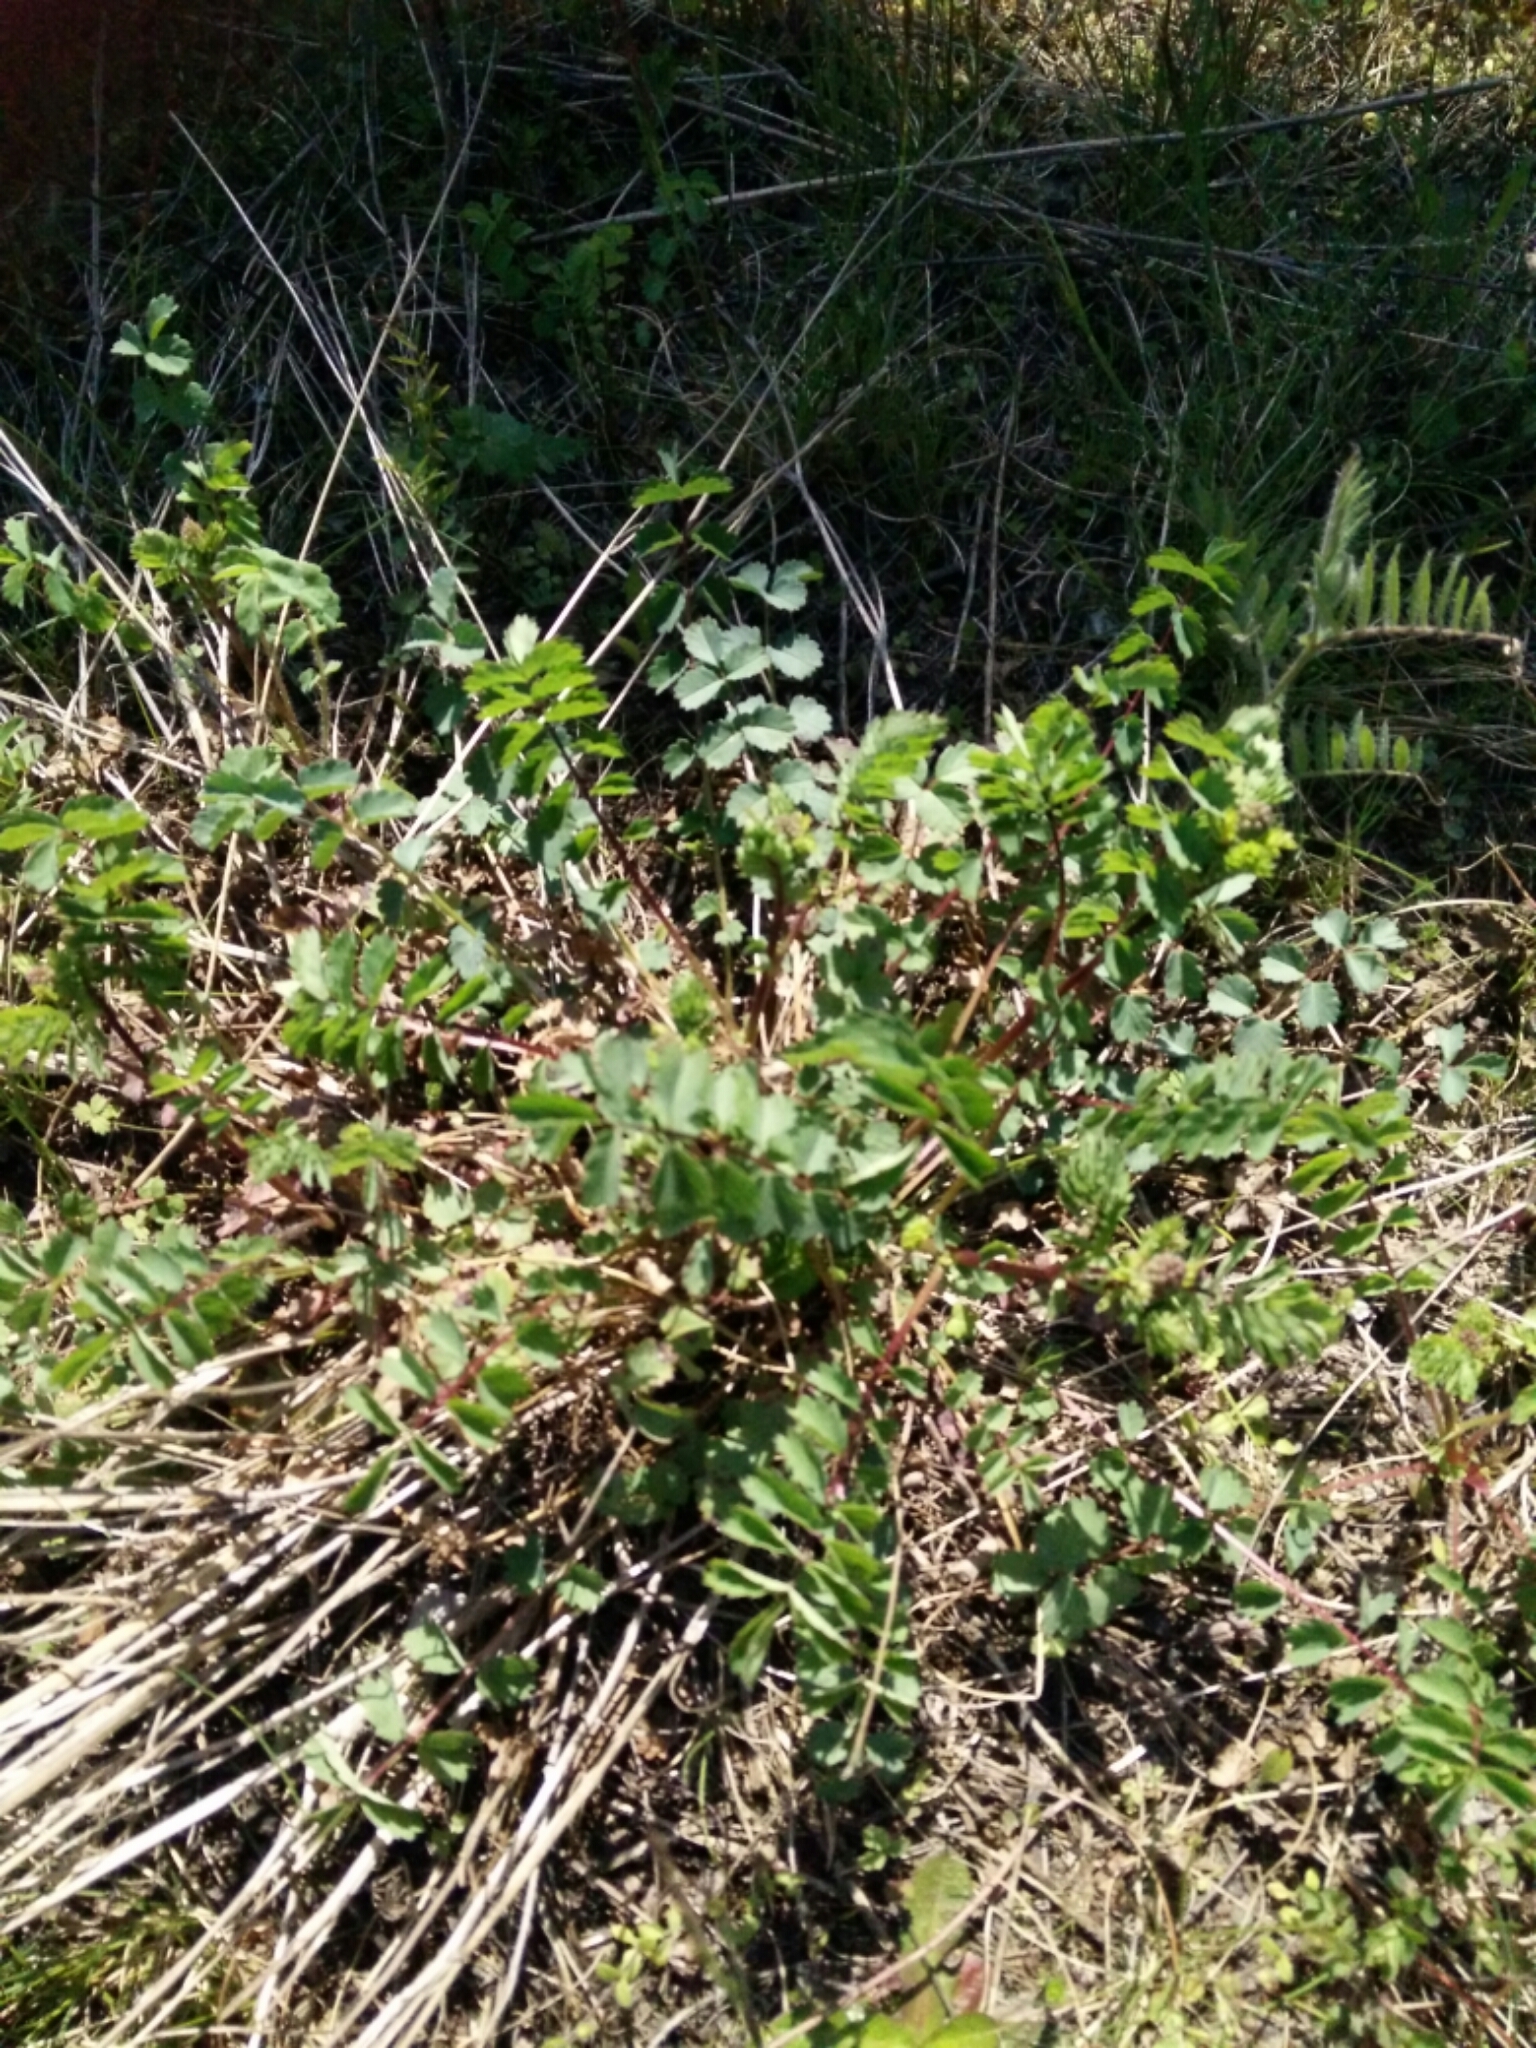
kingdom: Plantae
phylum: Tracheophyta
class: Magnoliopsida
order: Rosales
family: Rosaceae
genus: Poterium
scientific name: Poterium sanguisorba
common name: Salad burnet
